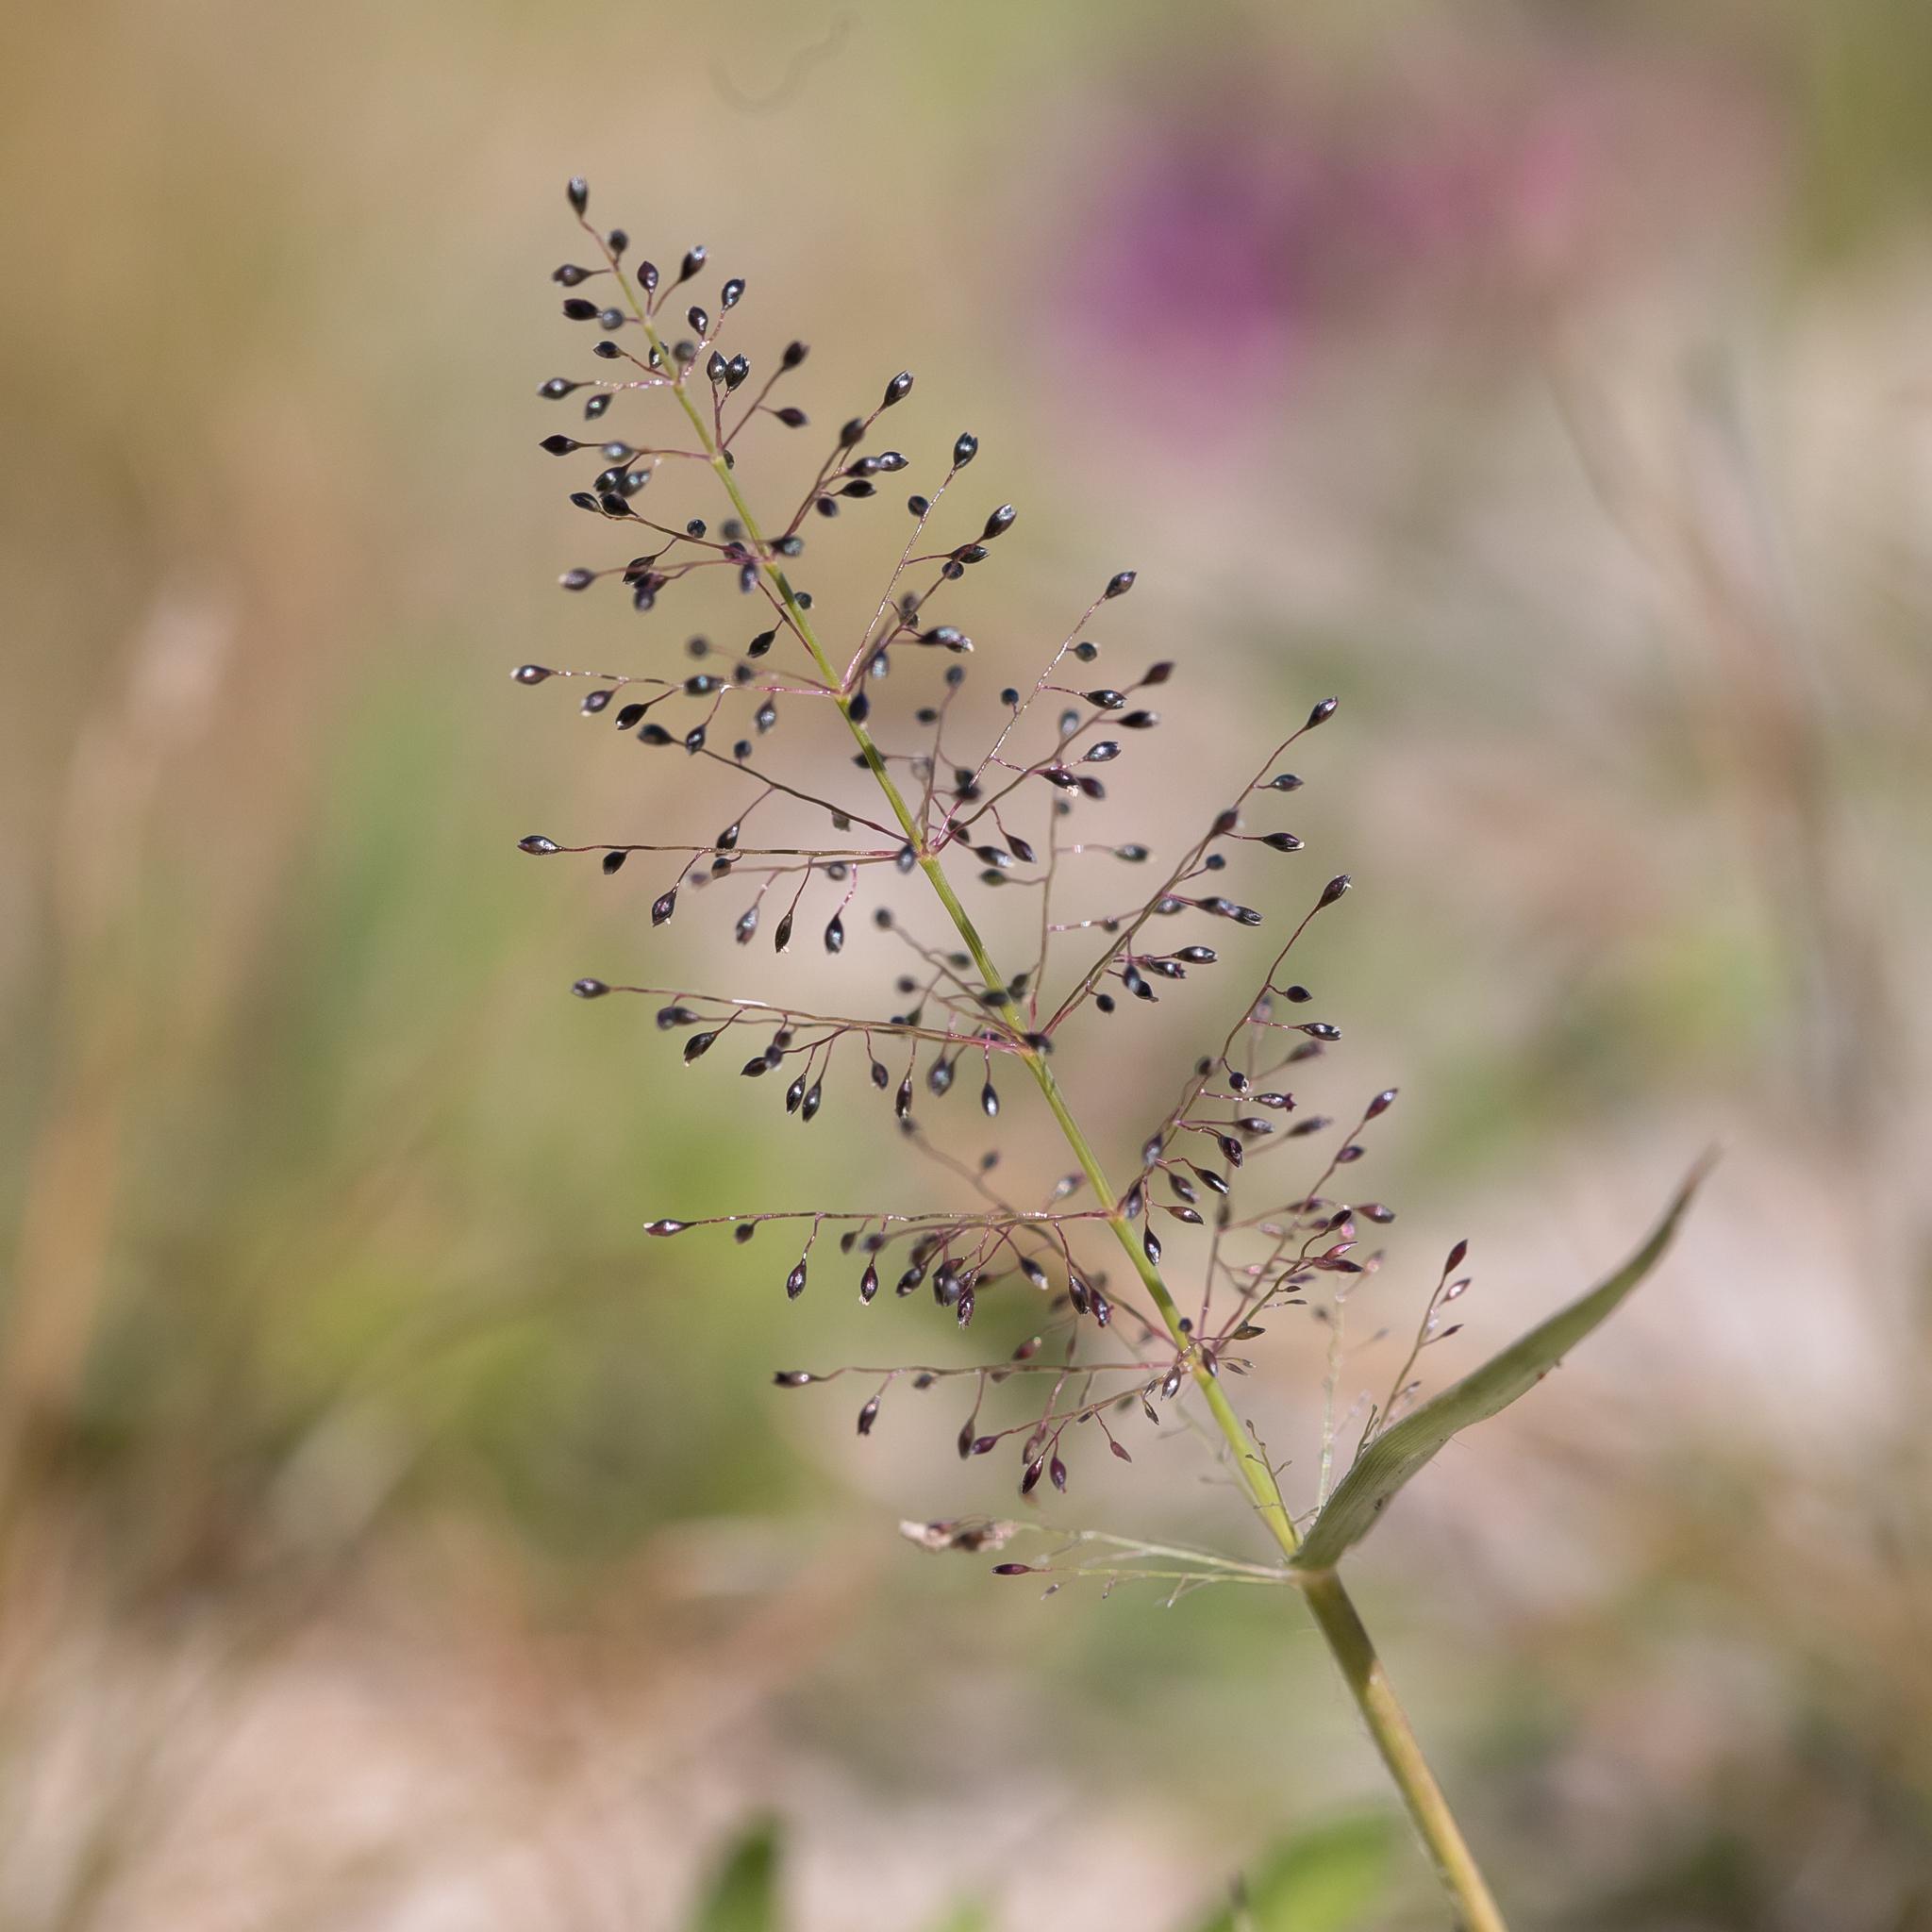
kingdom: Plantae
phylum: Tracheophyta
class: Liliopsida
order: Poales
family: Poaceae
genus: Sporobolus
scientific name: Sporobolus australasicus
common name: Australian dropseed
